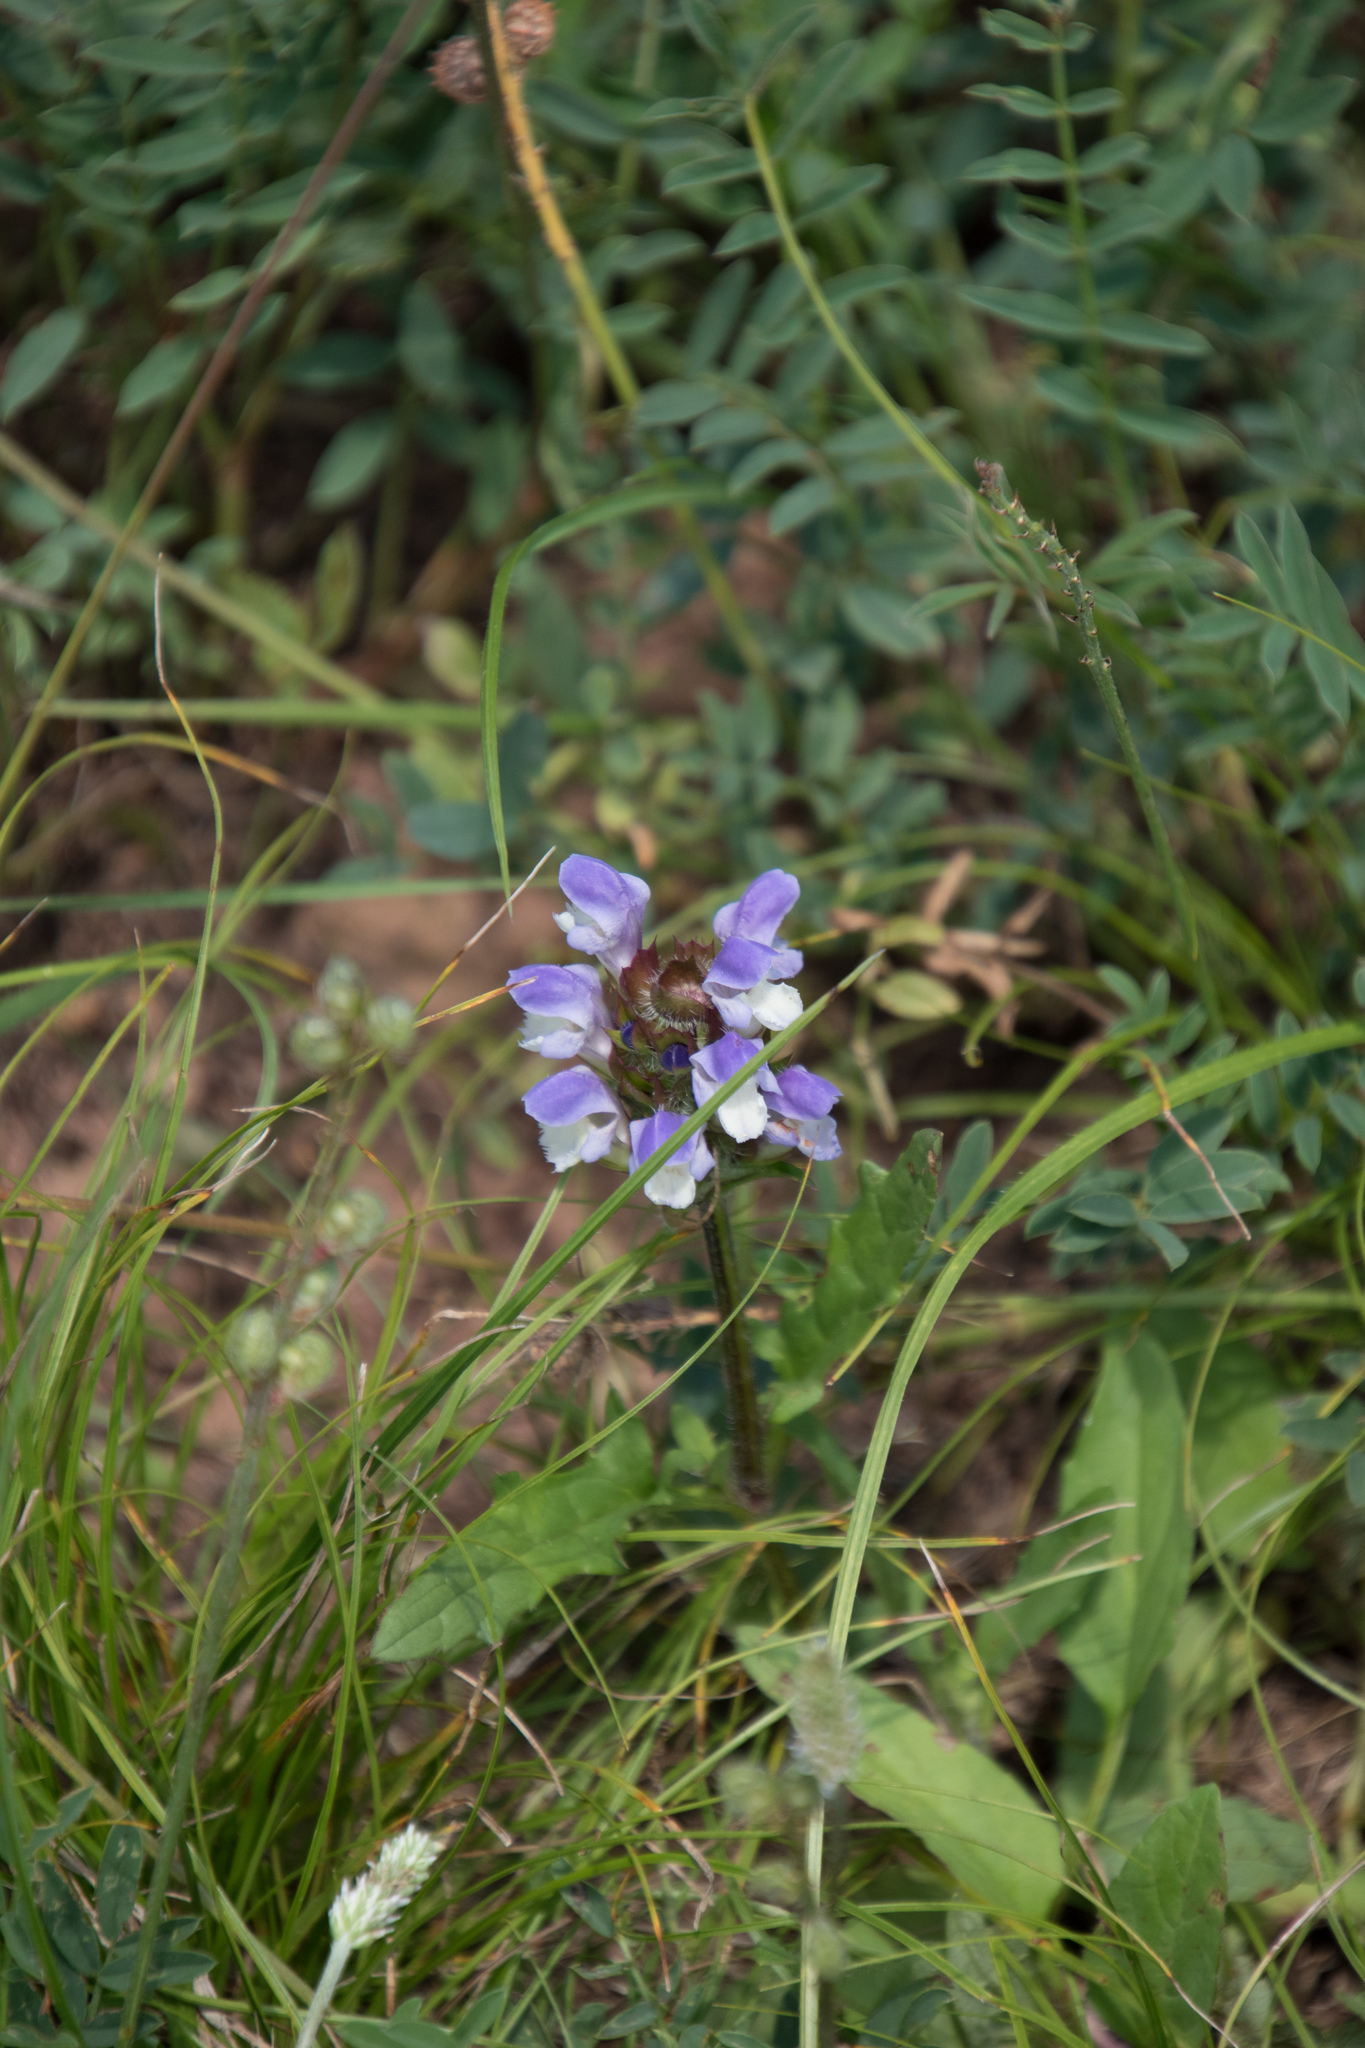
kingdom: Plantae
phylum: Tracheophyta
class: Magnoliopsida
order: Lamiales
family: Lamiaceae
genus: Prunella
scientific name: Prunella grandiflora
